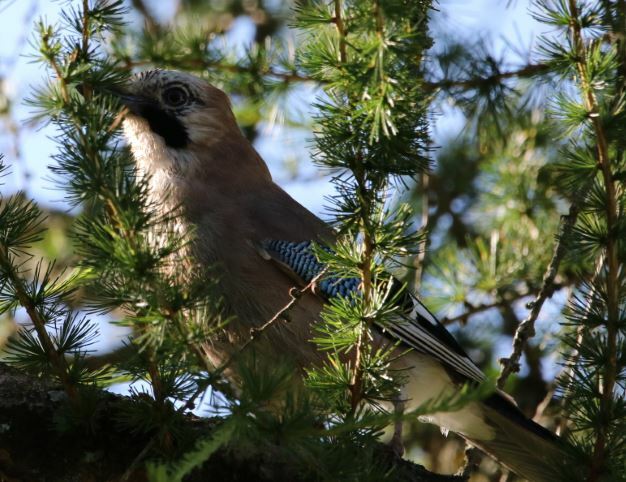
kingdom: Animalia
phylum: Chordata
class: Aves
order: Passeriformes
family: Corvidae
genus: Garrulus
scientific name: Garrulus glandarius
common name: Eurasian jay
